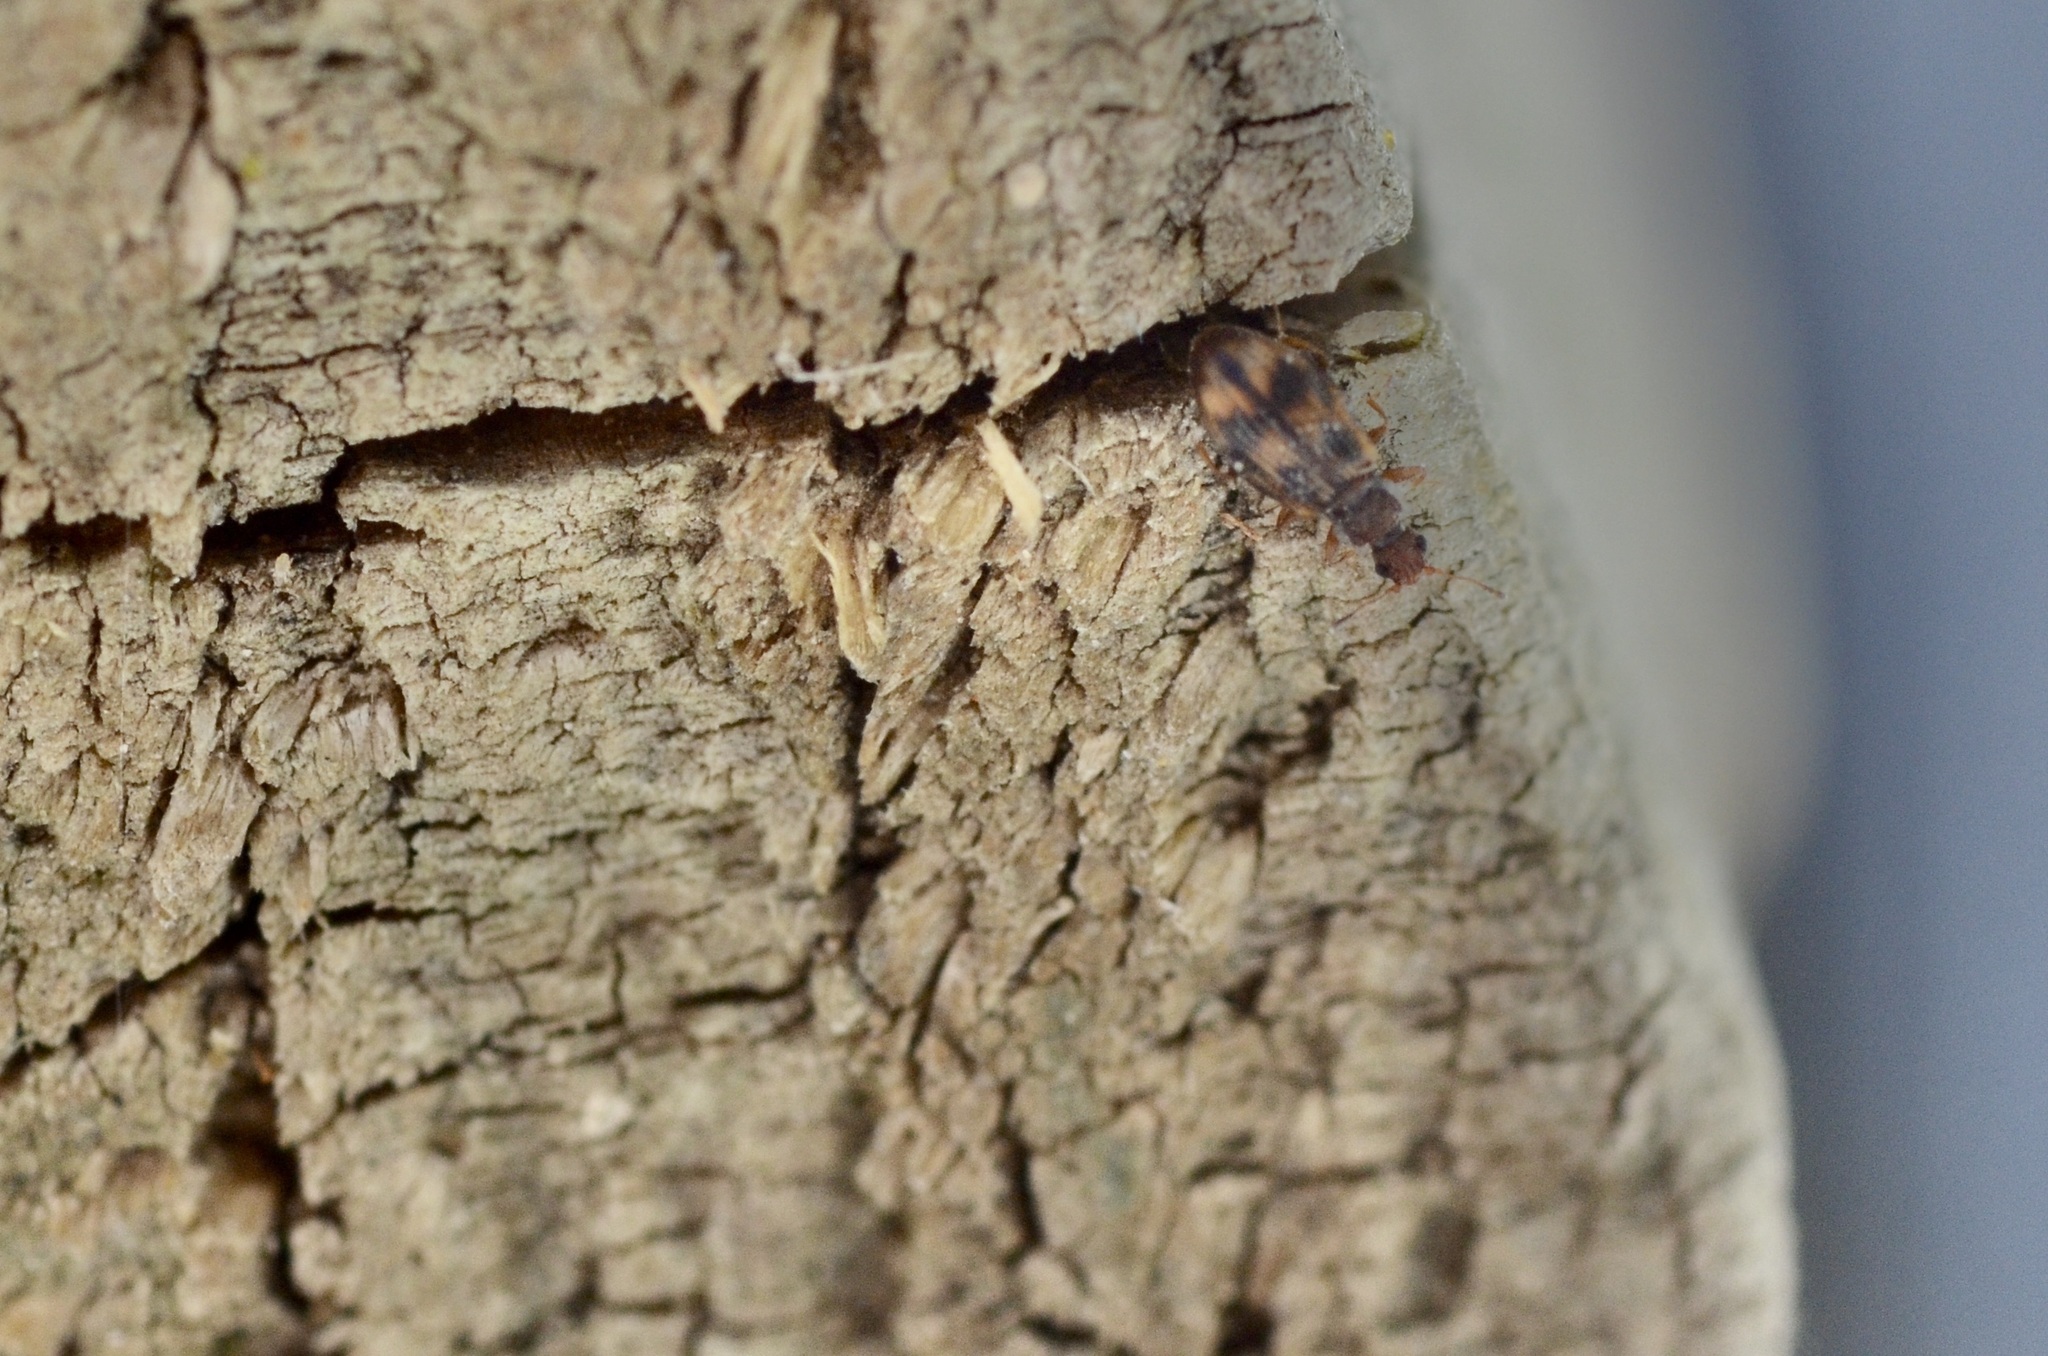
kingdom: Animalia
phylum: Arthropoda
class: Insecta
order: Coleoptera
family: Latridiidae
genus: Cartodere
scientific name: Cartodere bifasciata
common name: Plaster beetle
